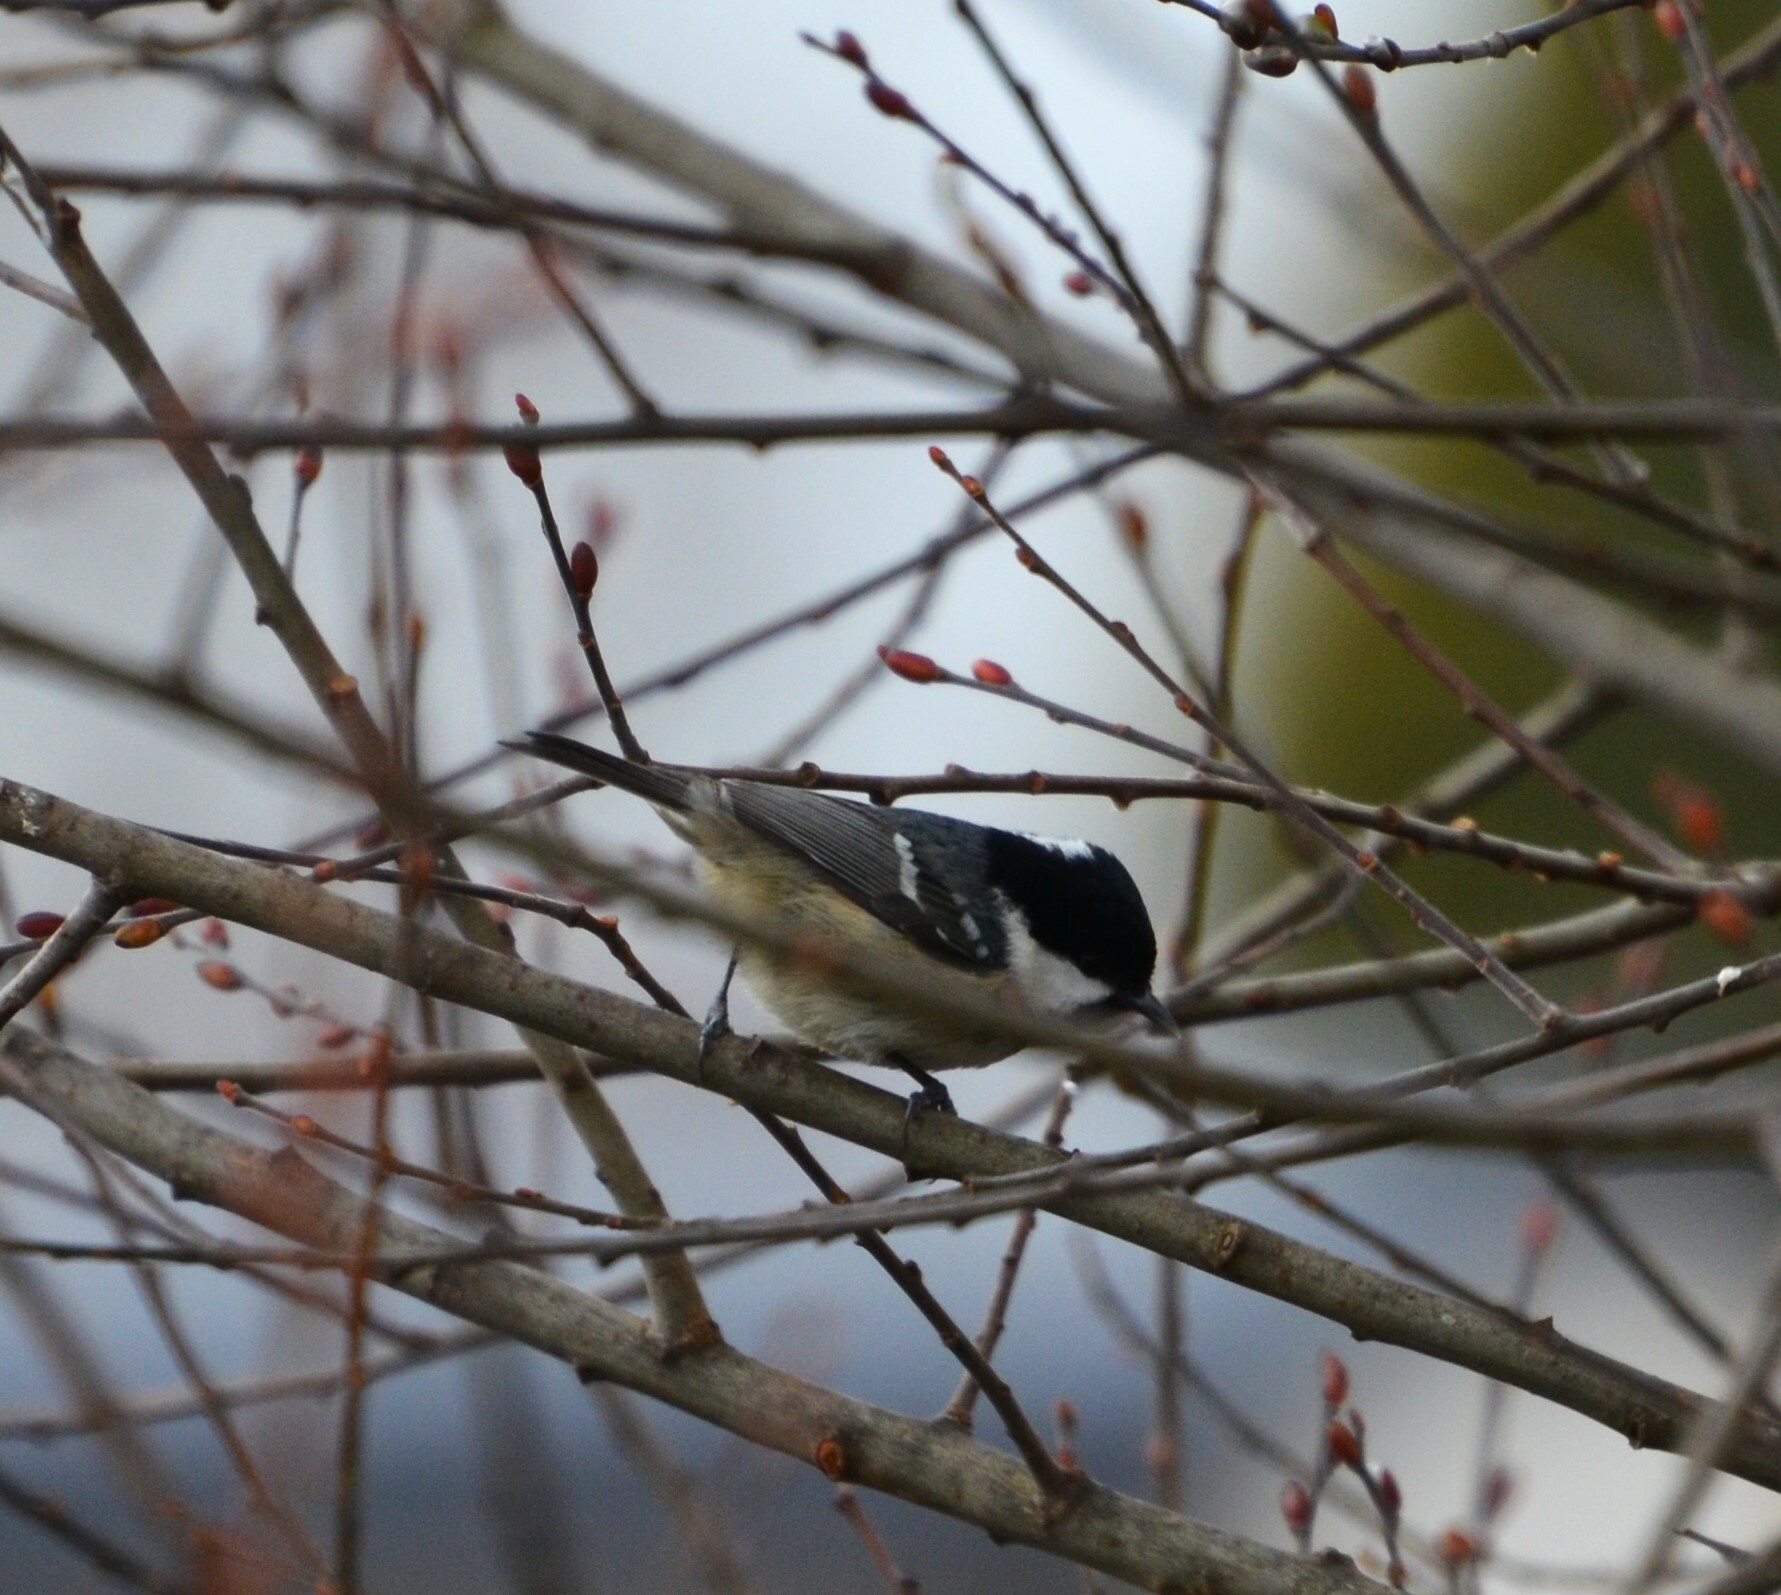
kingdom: Animalia
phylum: Chordata
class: Aves
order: Passeriformes
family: Paridae
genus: Periparus
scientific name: Periparus ater
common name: Coal tit
